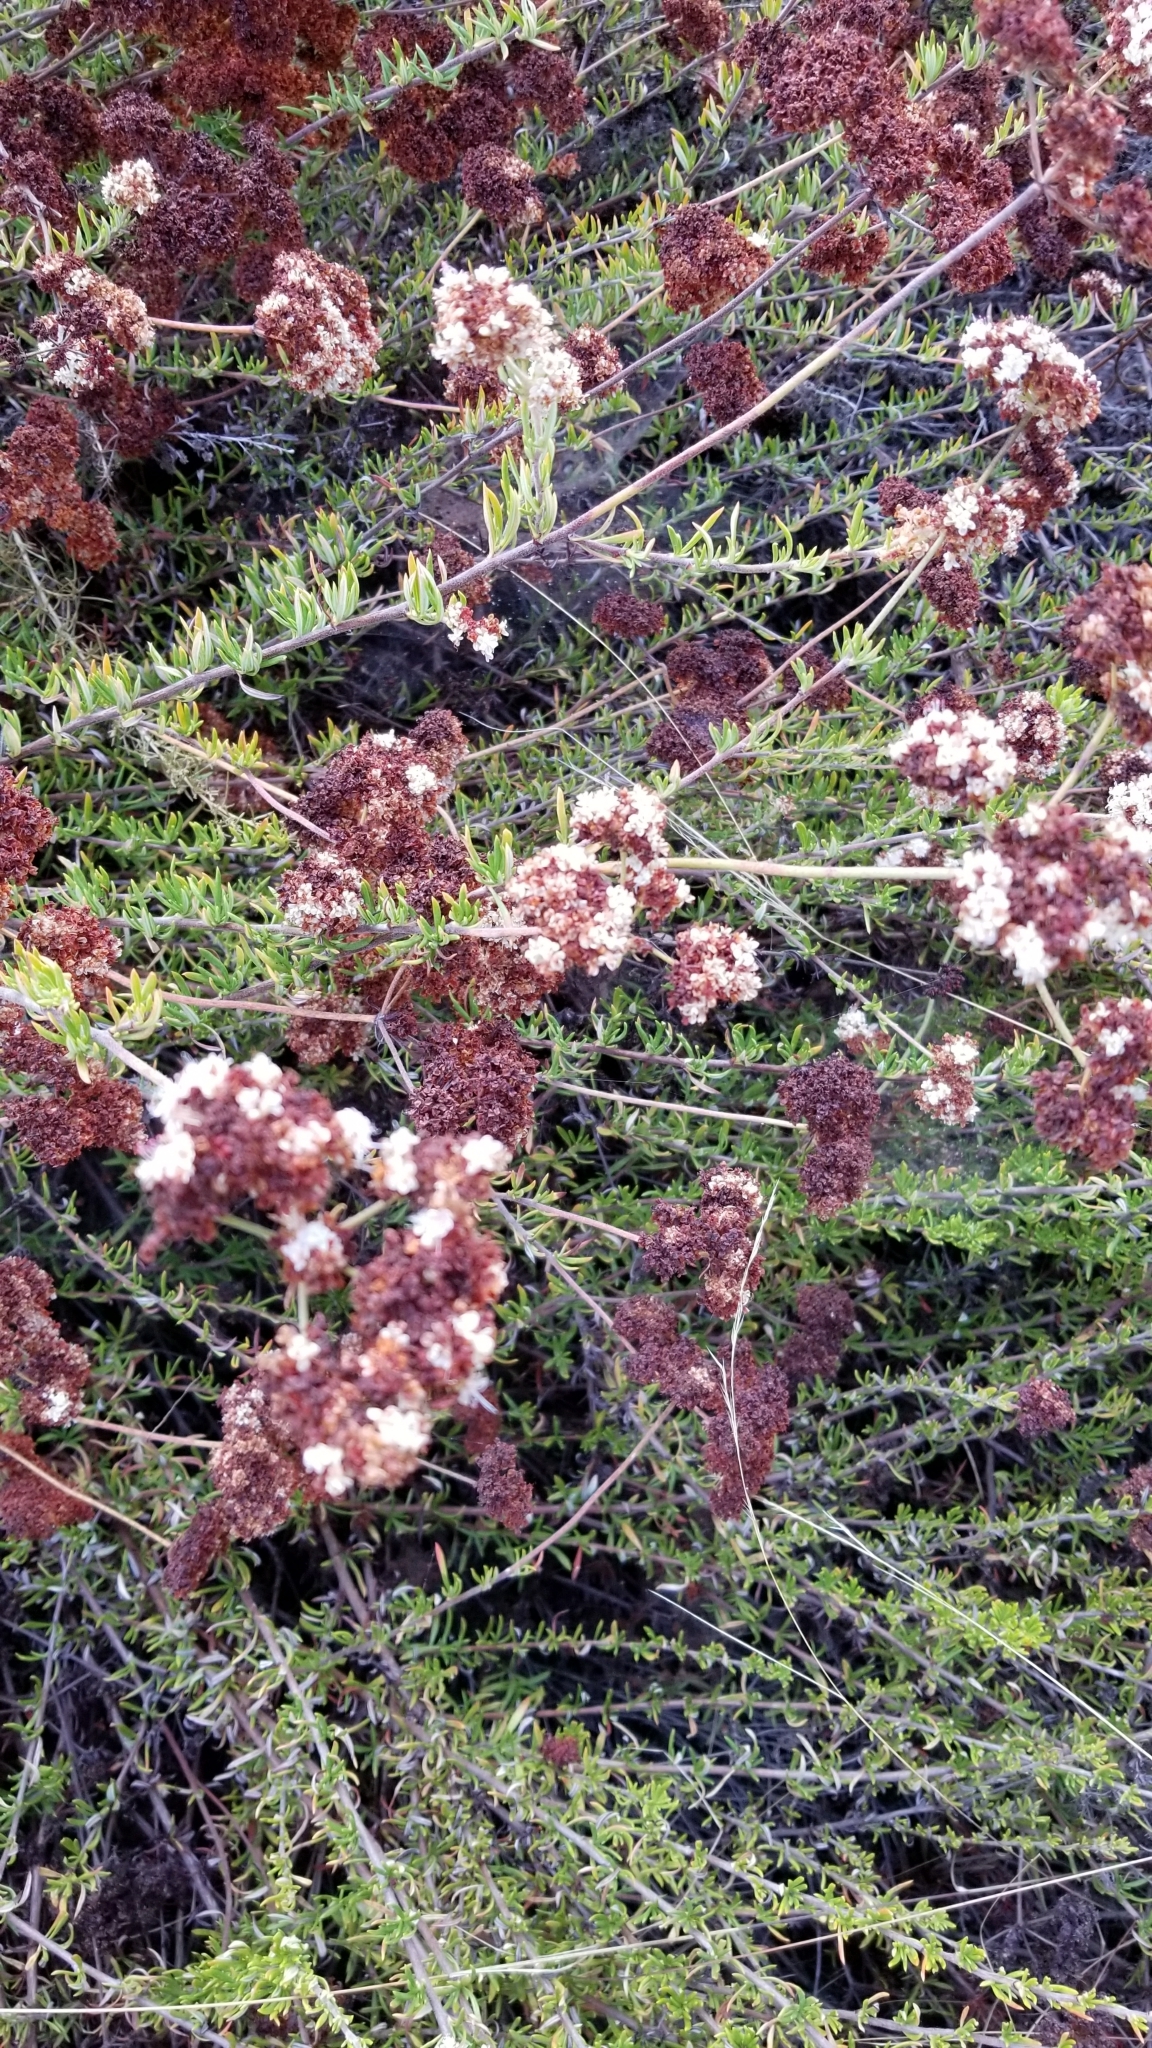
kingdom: Plantae
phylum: Tracheophyta
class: Magnoliopsida
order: Caryophyllales
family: Polygonaceae
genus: Eriogonum
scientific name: Eriogonum fasciculatum
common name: California wild buckwheat
